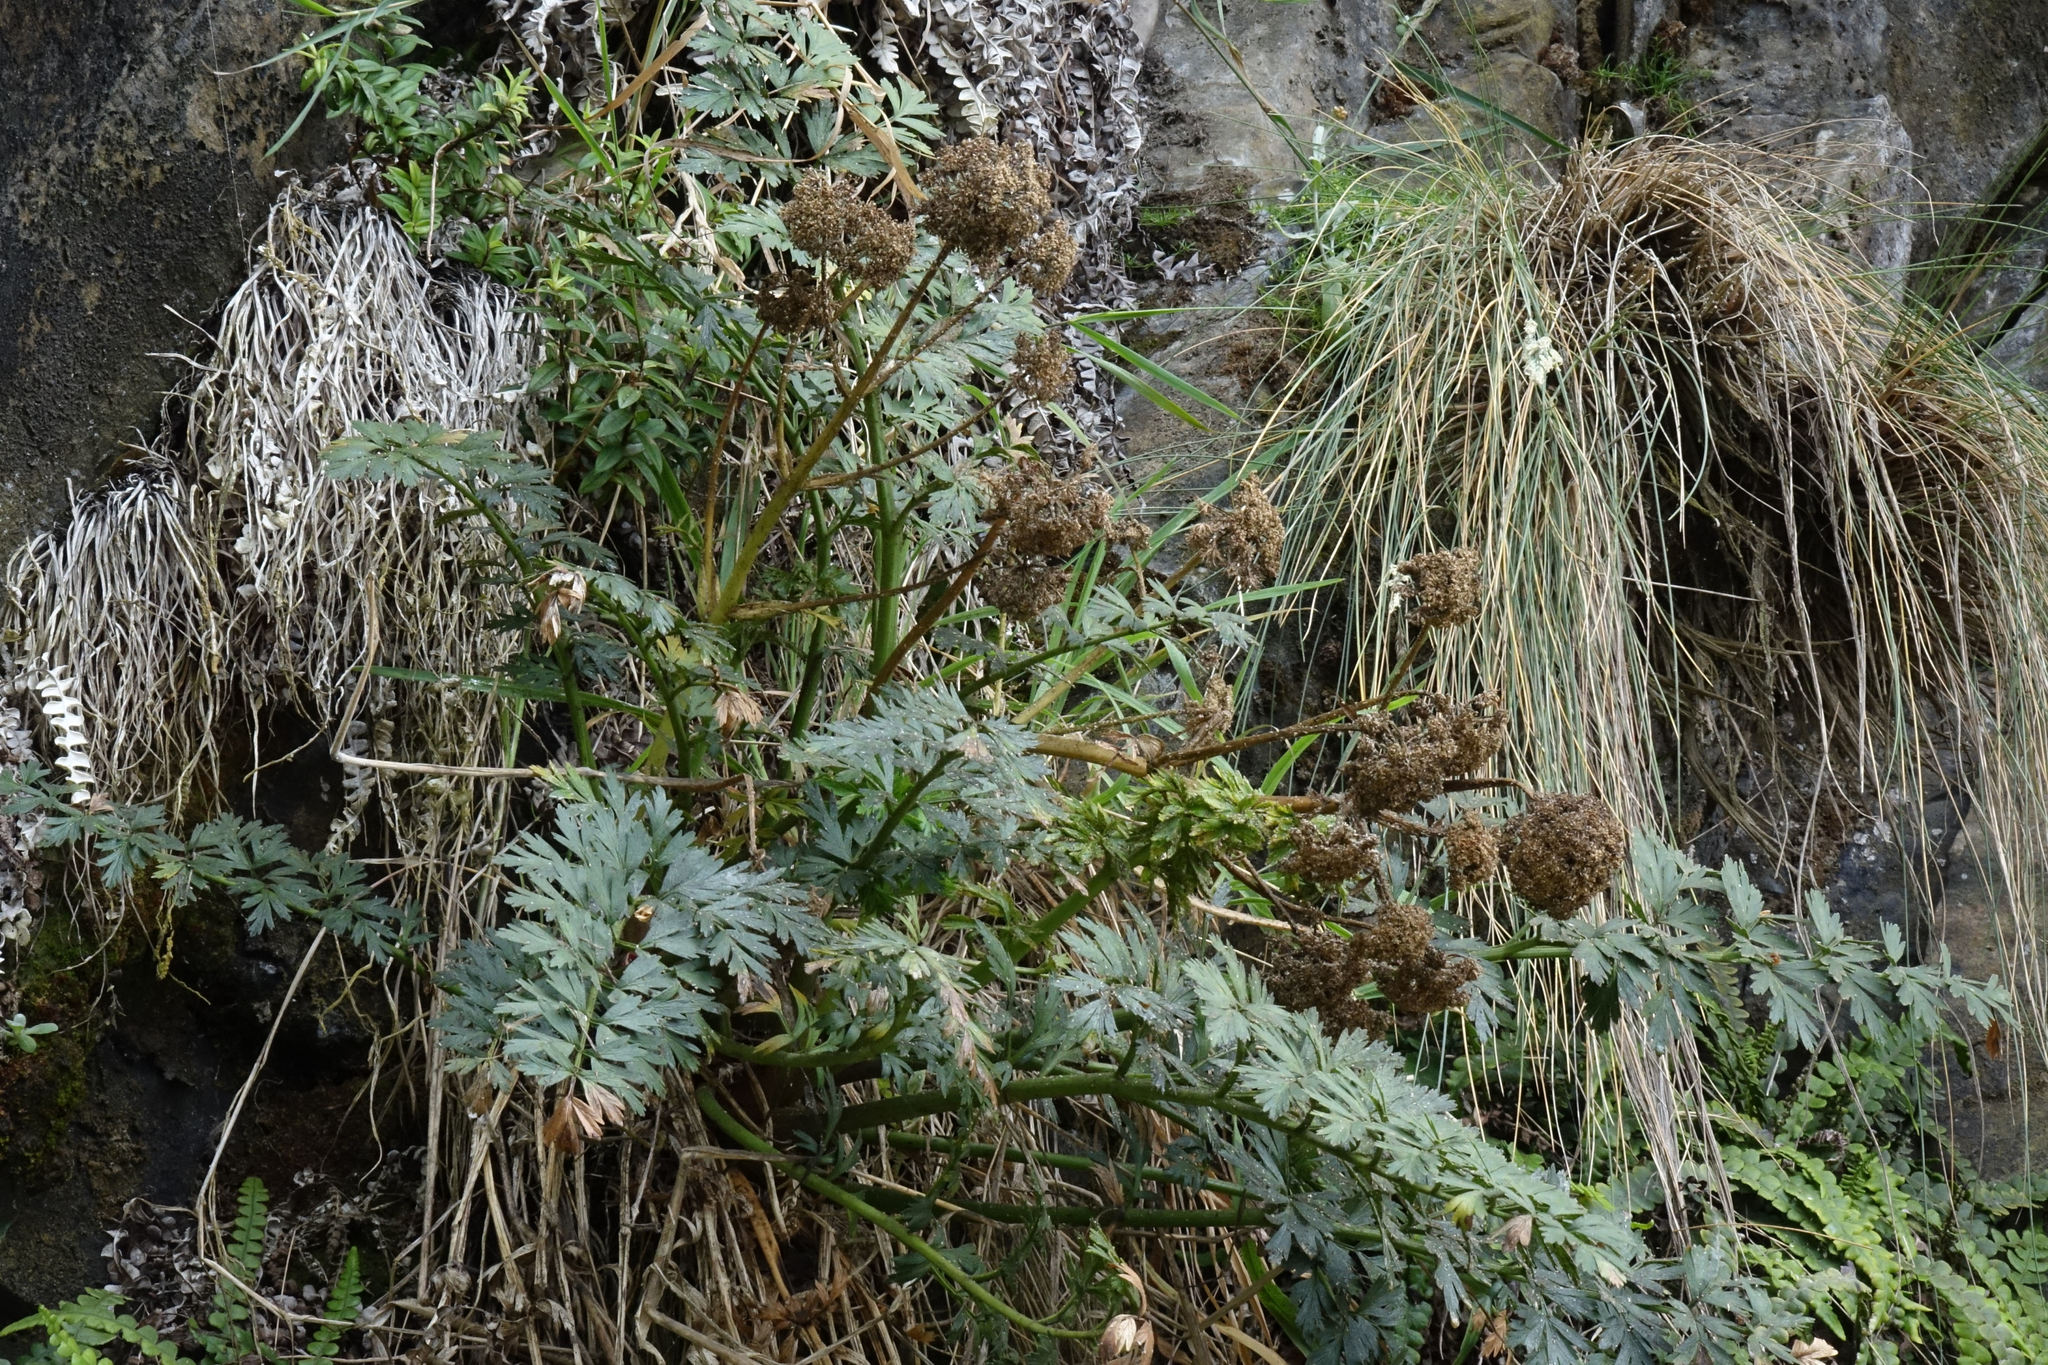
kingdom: Plantae
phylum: Tracheophyta
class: Magnoliopsida
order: Apiales
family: Apiaceae
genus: Anisotome
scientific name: Anisotome lyallii
